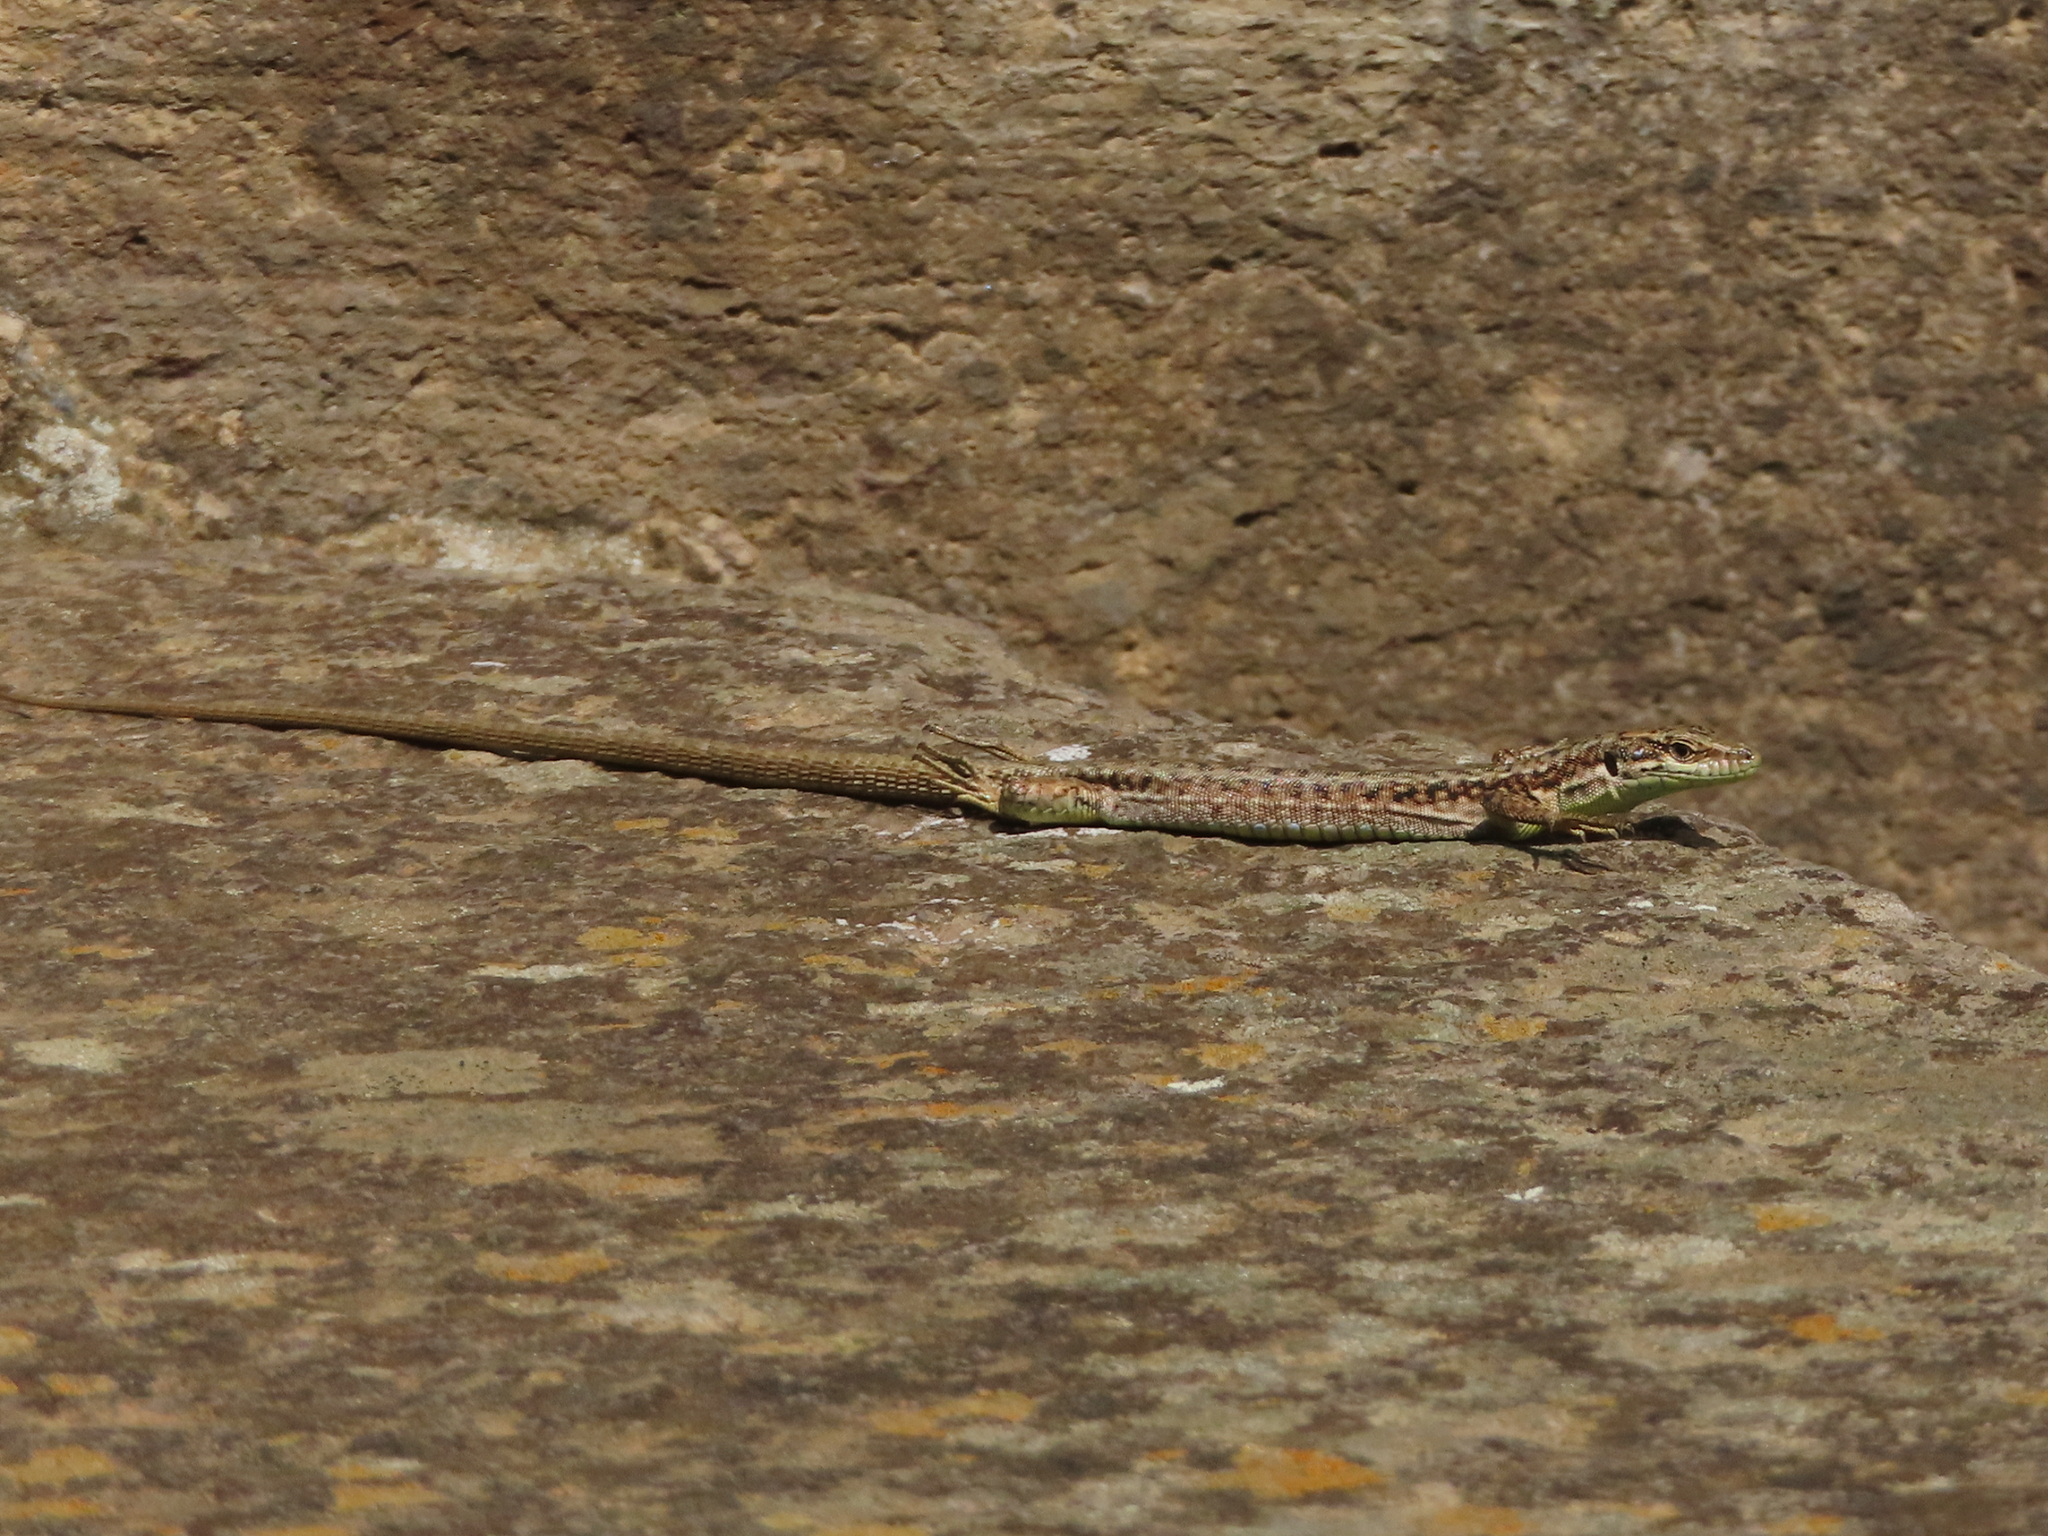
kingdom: Animalia
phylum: Chordata
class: Squamata
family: Lacertidae
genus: Darevskia
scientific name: Darevskia rostombekowi
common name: Rostombekow's lizard
